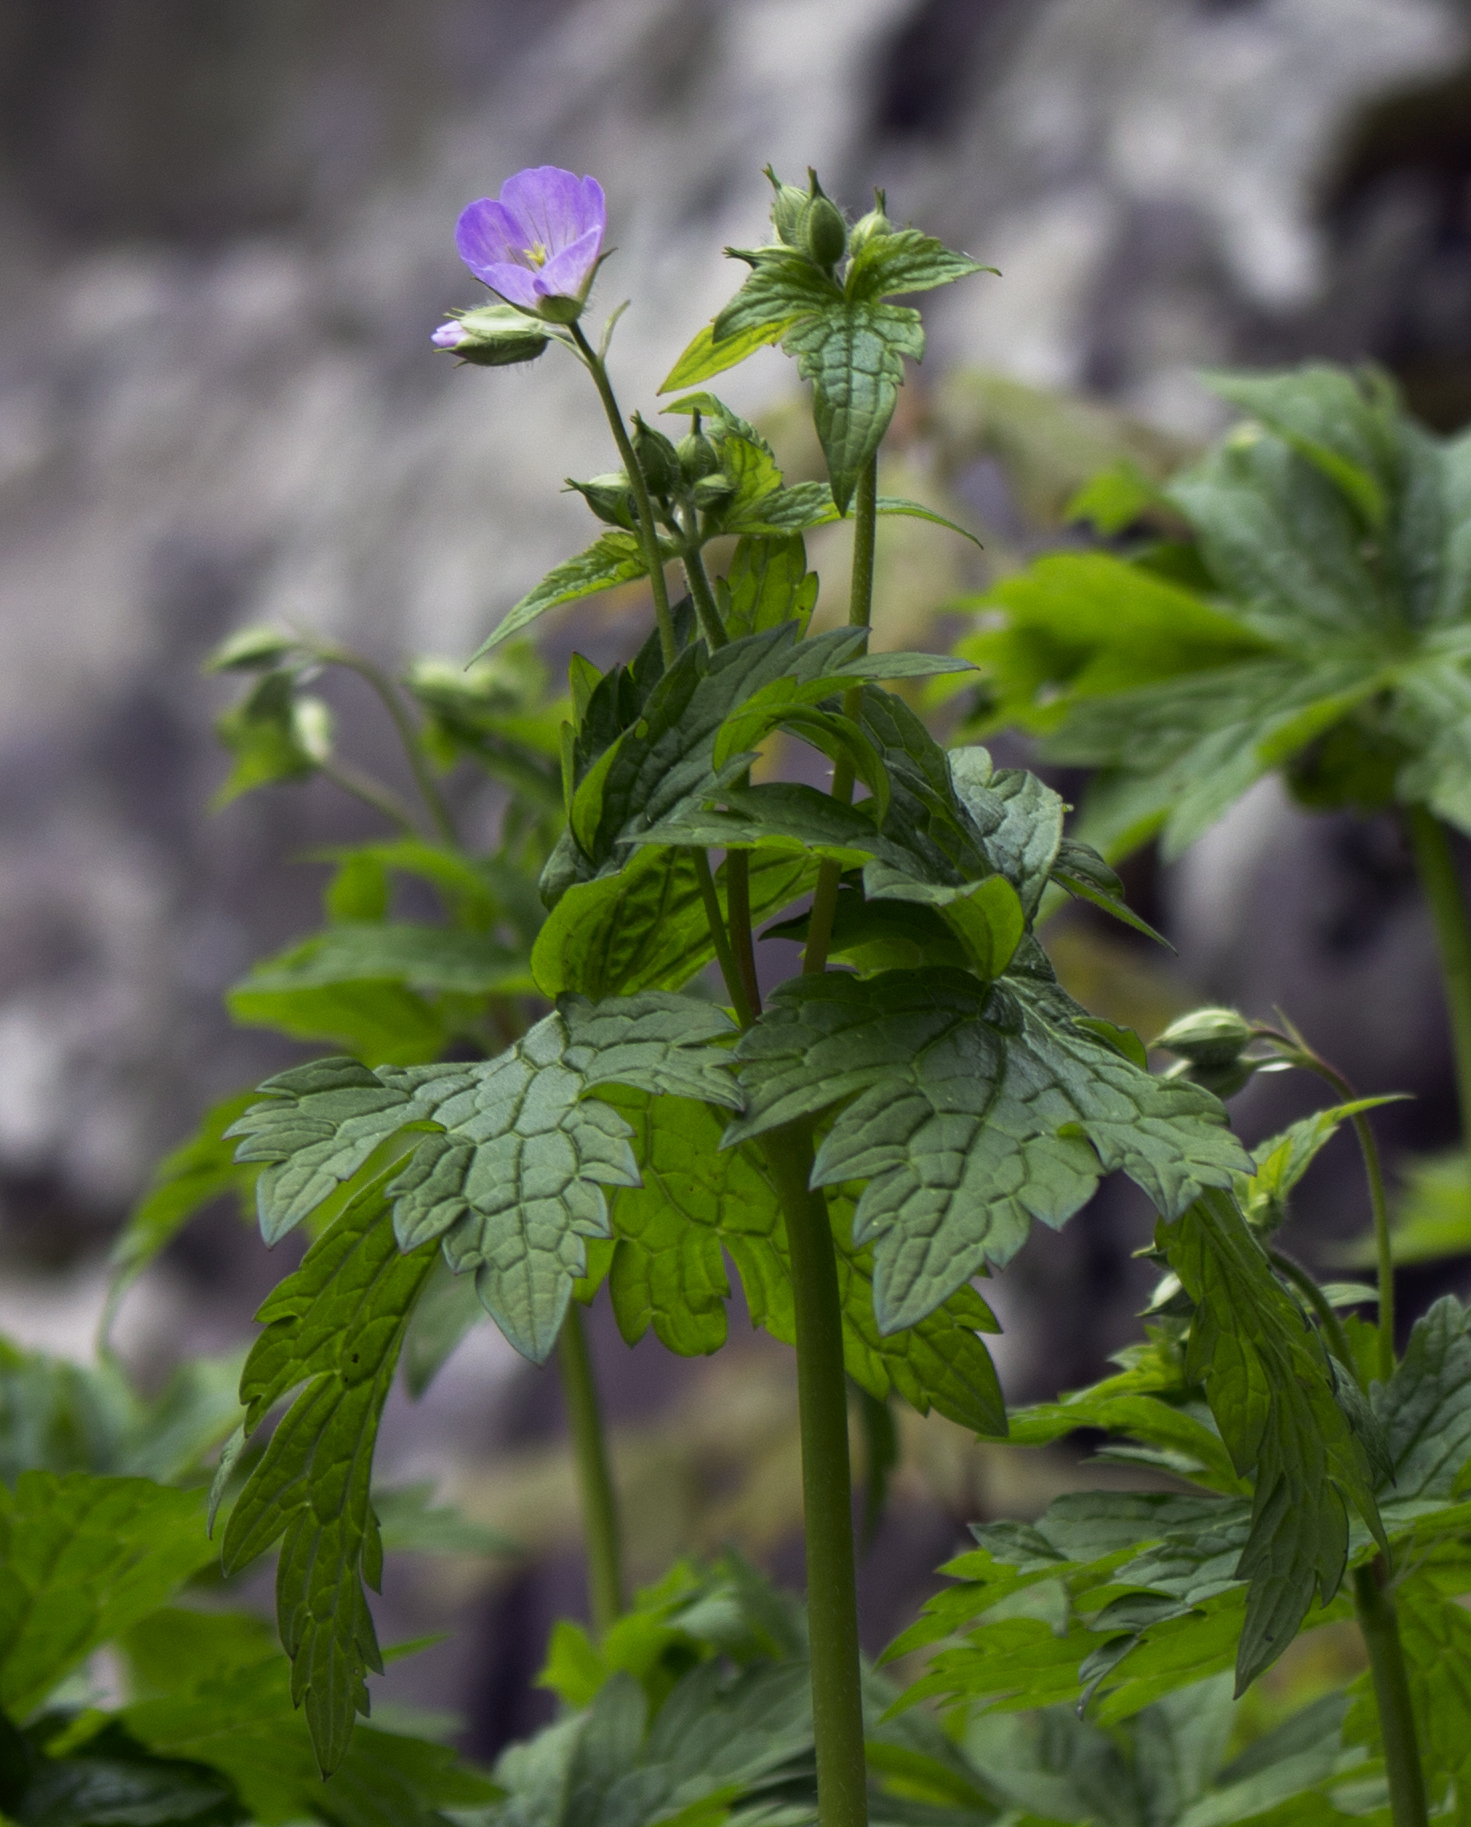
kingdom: Plantae
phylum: Tracheophyta
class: Magnoliopsida
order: Geraniales
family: Geraniaceae
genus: Geranium
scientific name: Geranium maculatum
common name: Spotted geranium
